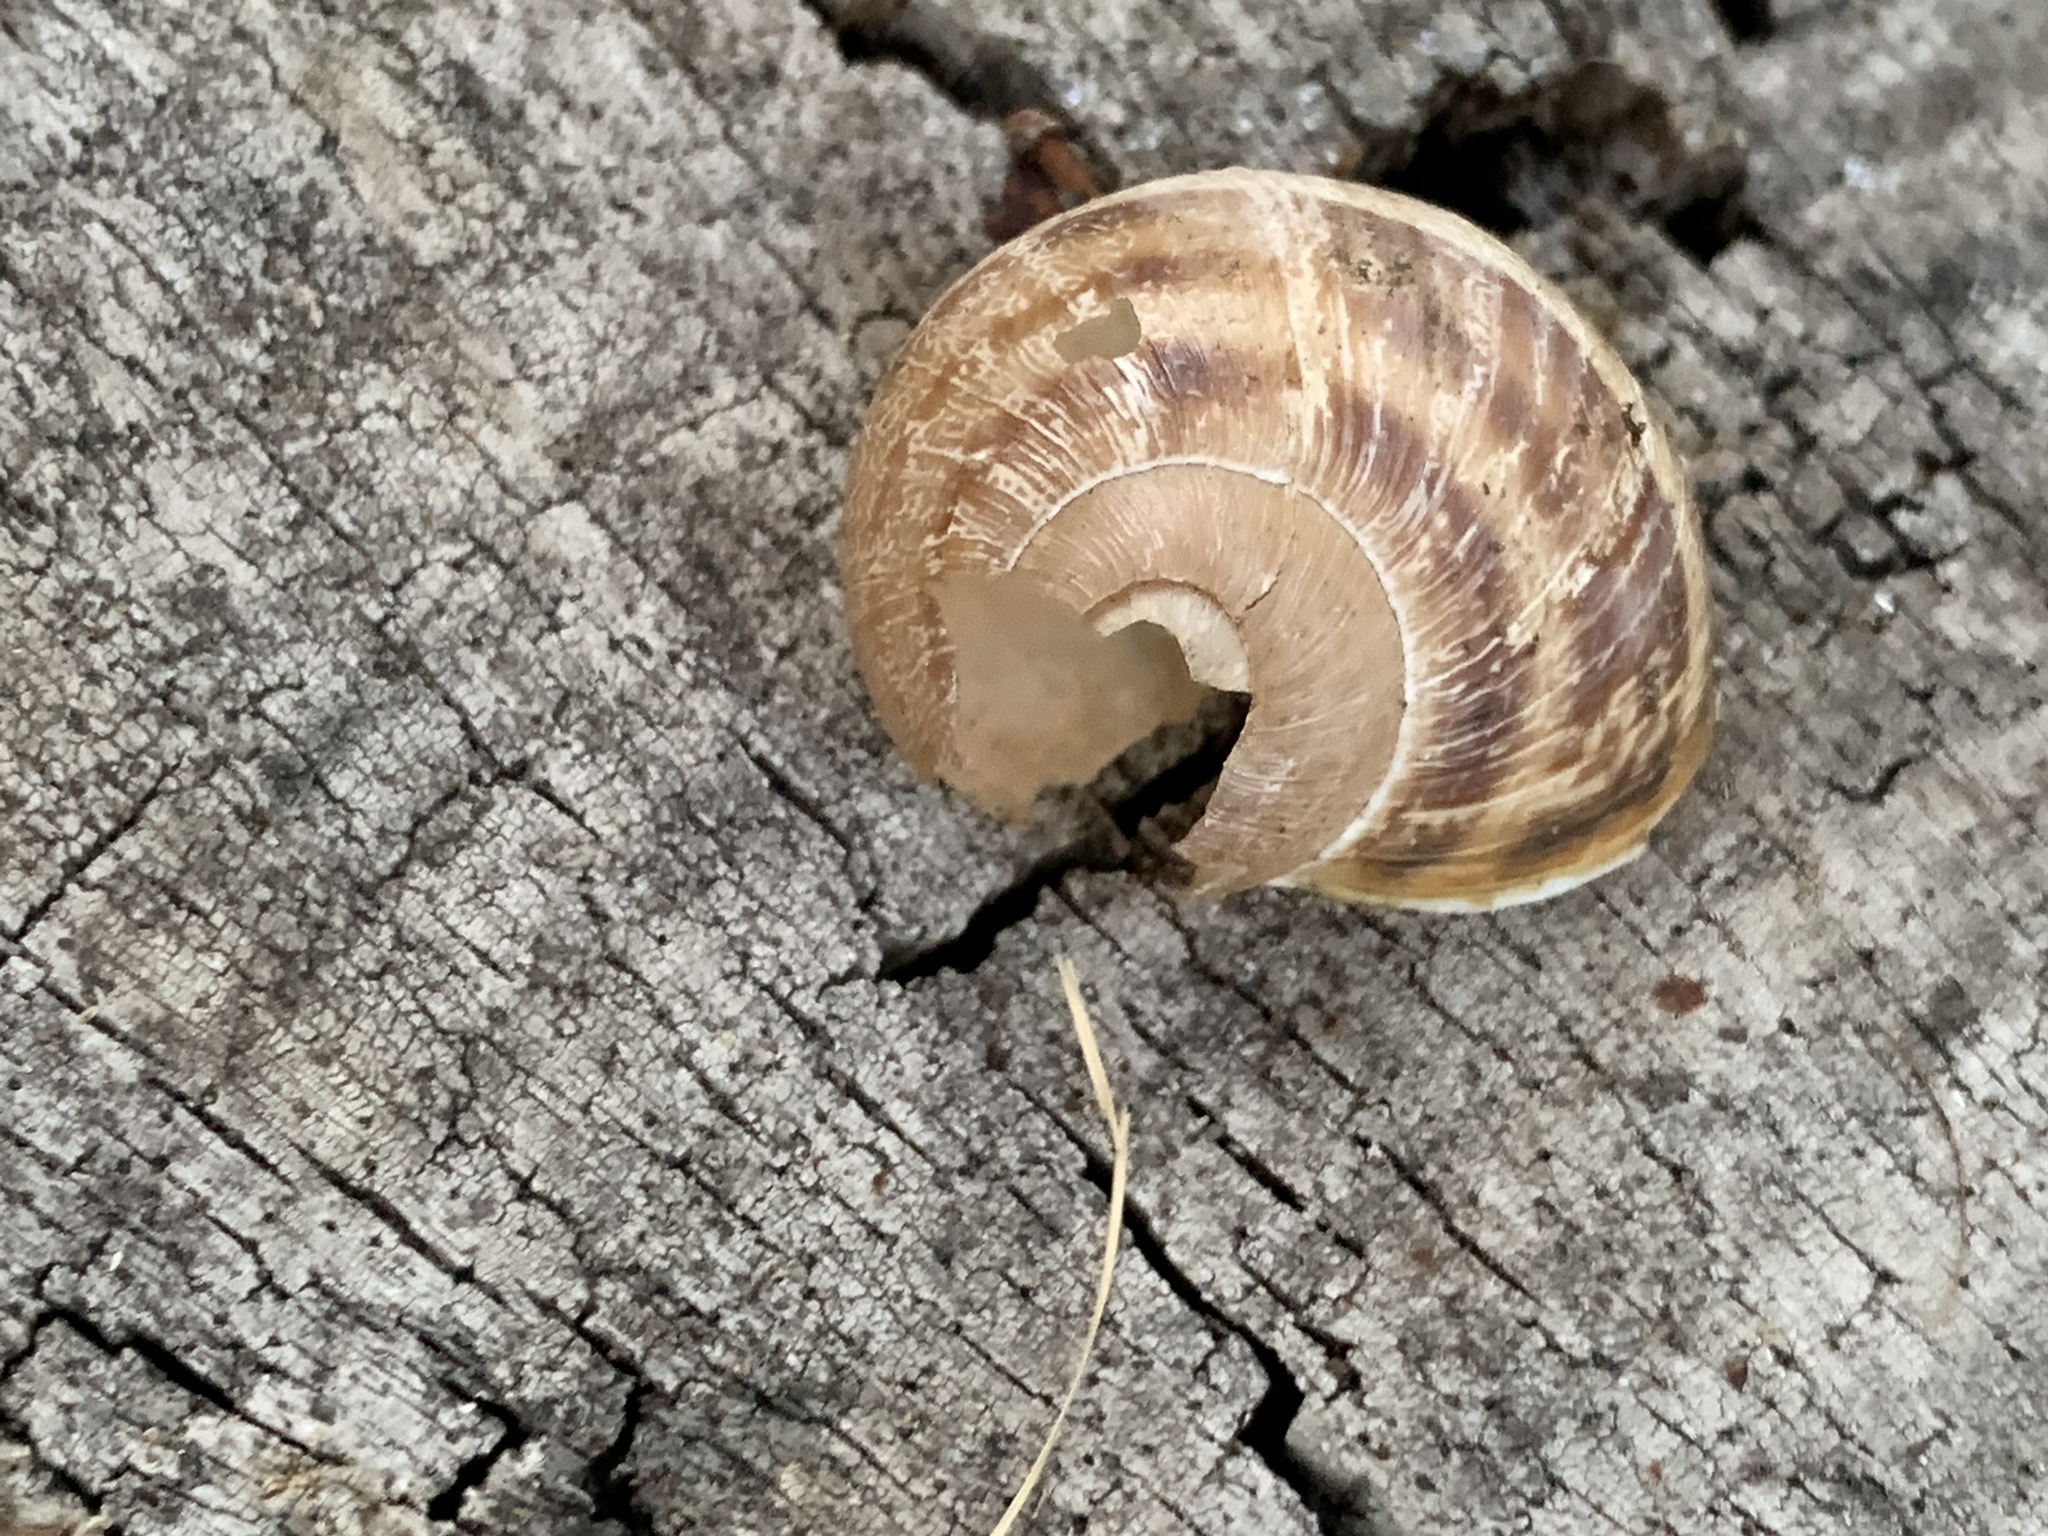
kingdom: Animalia
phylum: Mollusca
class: Gastropoda
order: Stylommatophora
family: Helicidae
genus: Cornu
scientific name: Cornu aspersum
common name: Brown garden snail
